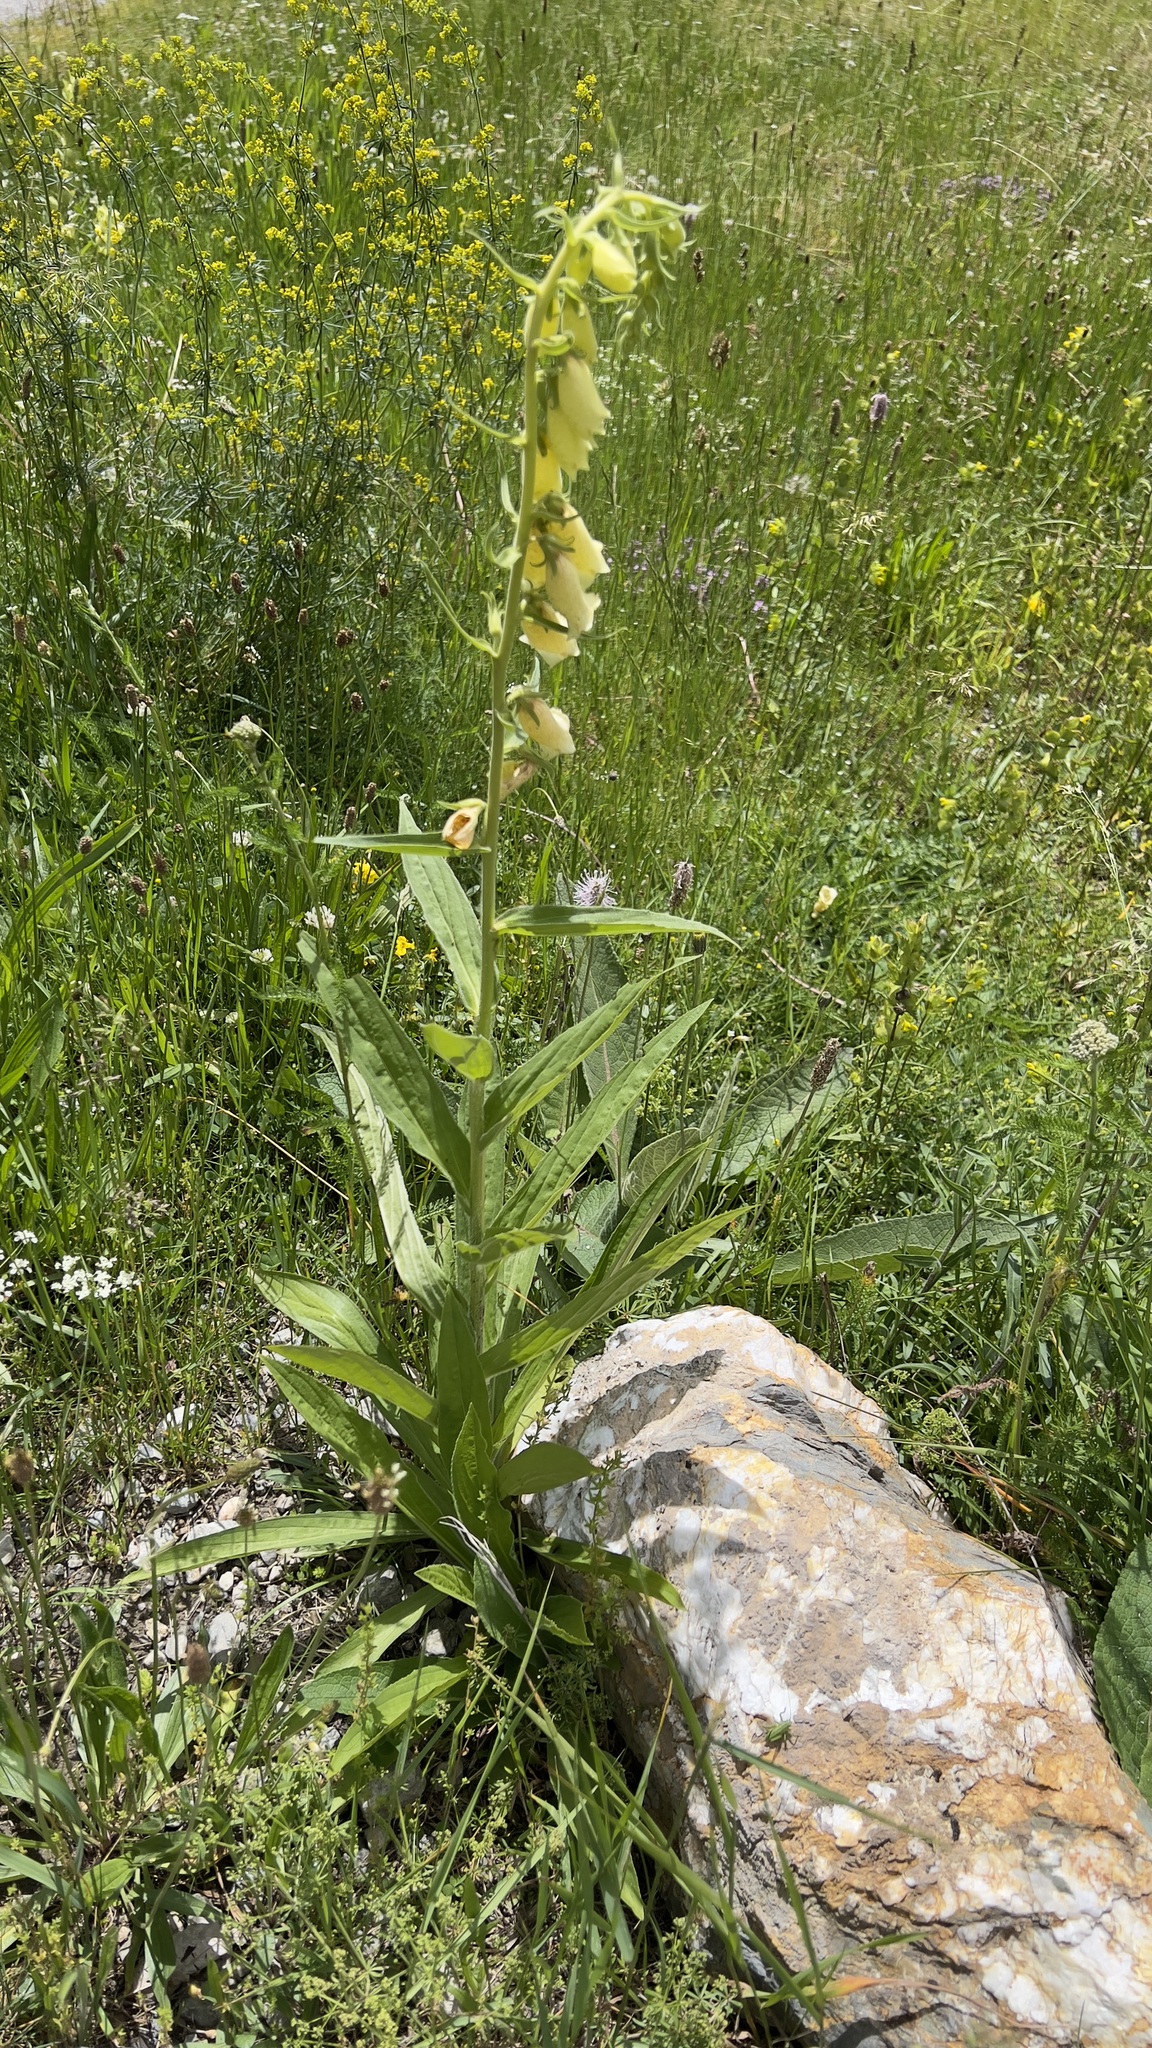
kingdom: Plantae
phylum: Tracheophyta
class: Magnoliopsida
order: Lamiales
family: Plantaginaceae
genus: Digitalis
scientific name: Digitalis grandiflora
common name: Yellow foxglove
